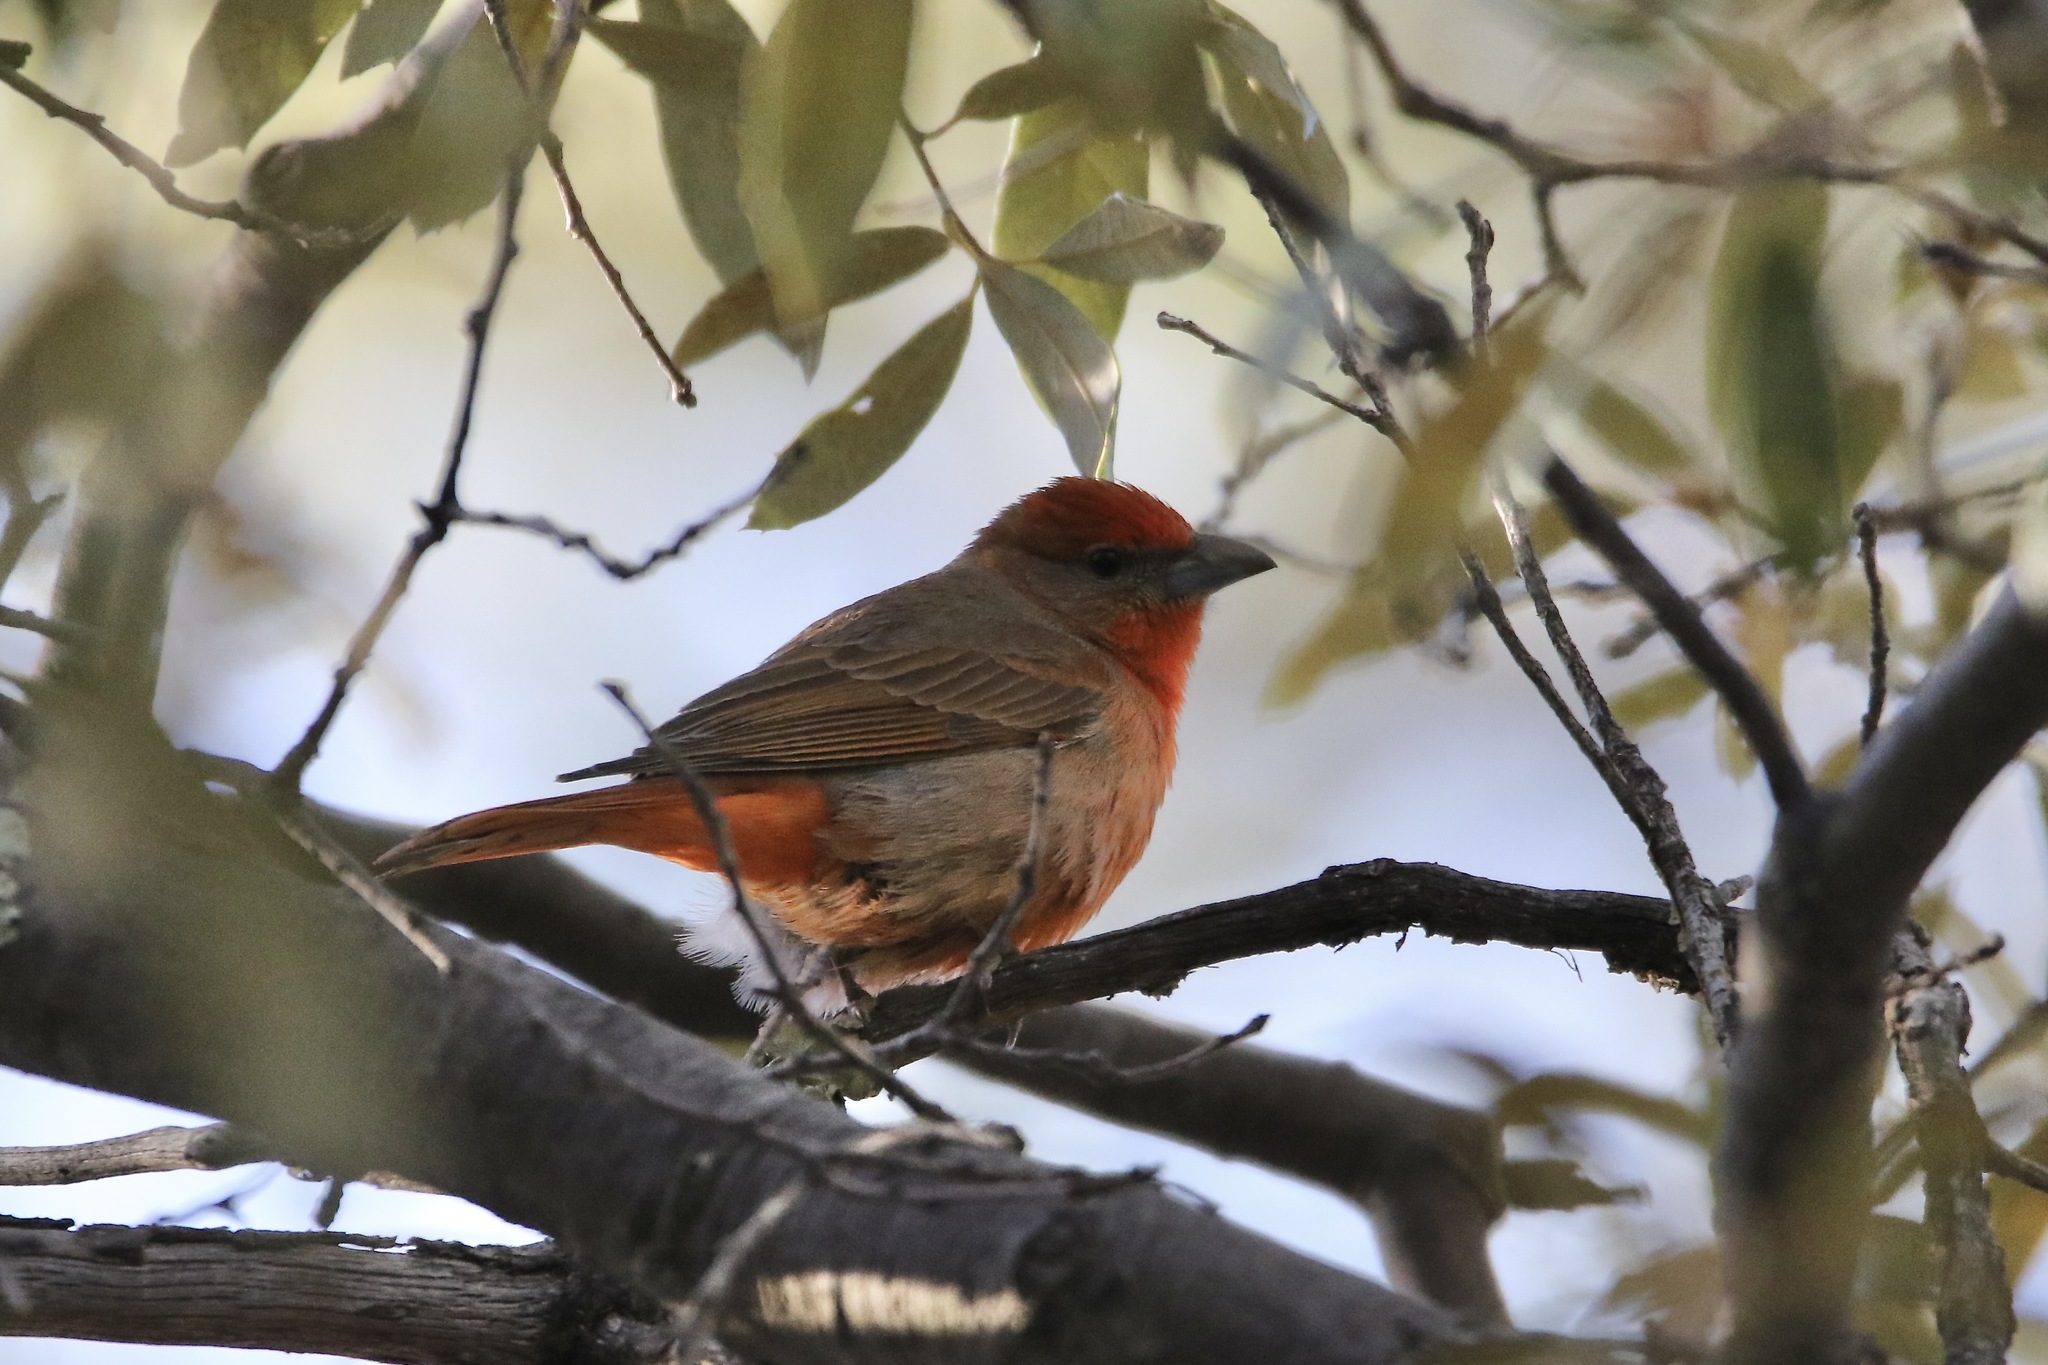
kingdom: Animalia
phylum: Chordata
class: Aves
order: Passeriformes
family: Cardinalidae
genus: Piranga
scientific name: Piranga flava
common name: Red tanager
